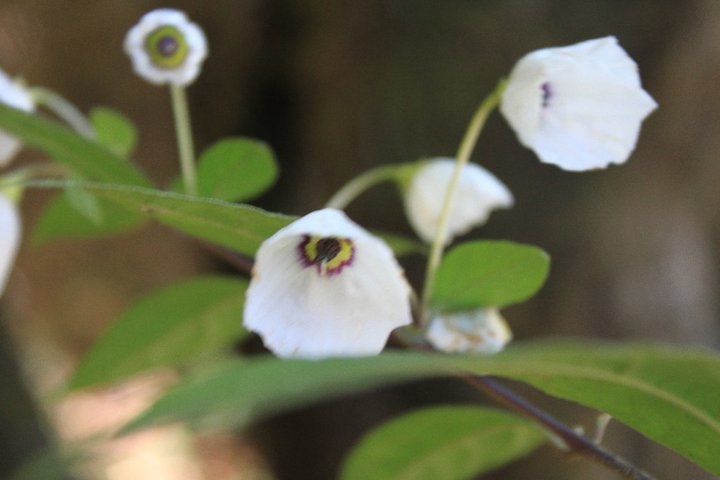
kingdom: Plantae
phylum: Tracheophyta
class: Magnoliopsida
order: Solanales
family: Solanaceae
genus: Lycianthes
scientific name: Lycianthes pilifera
